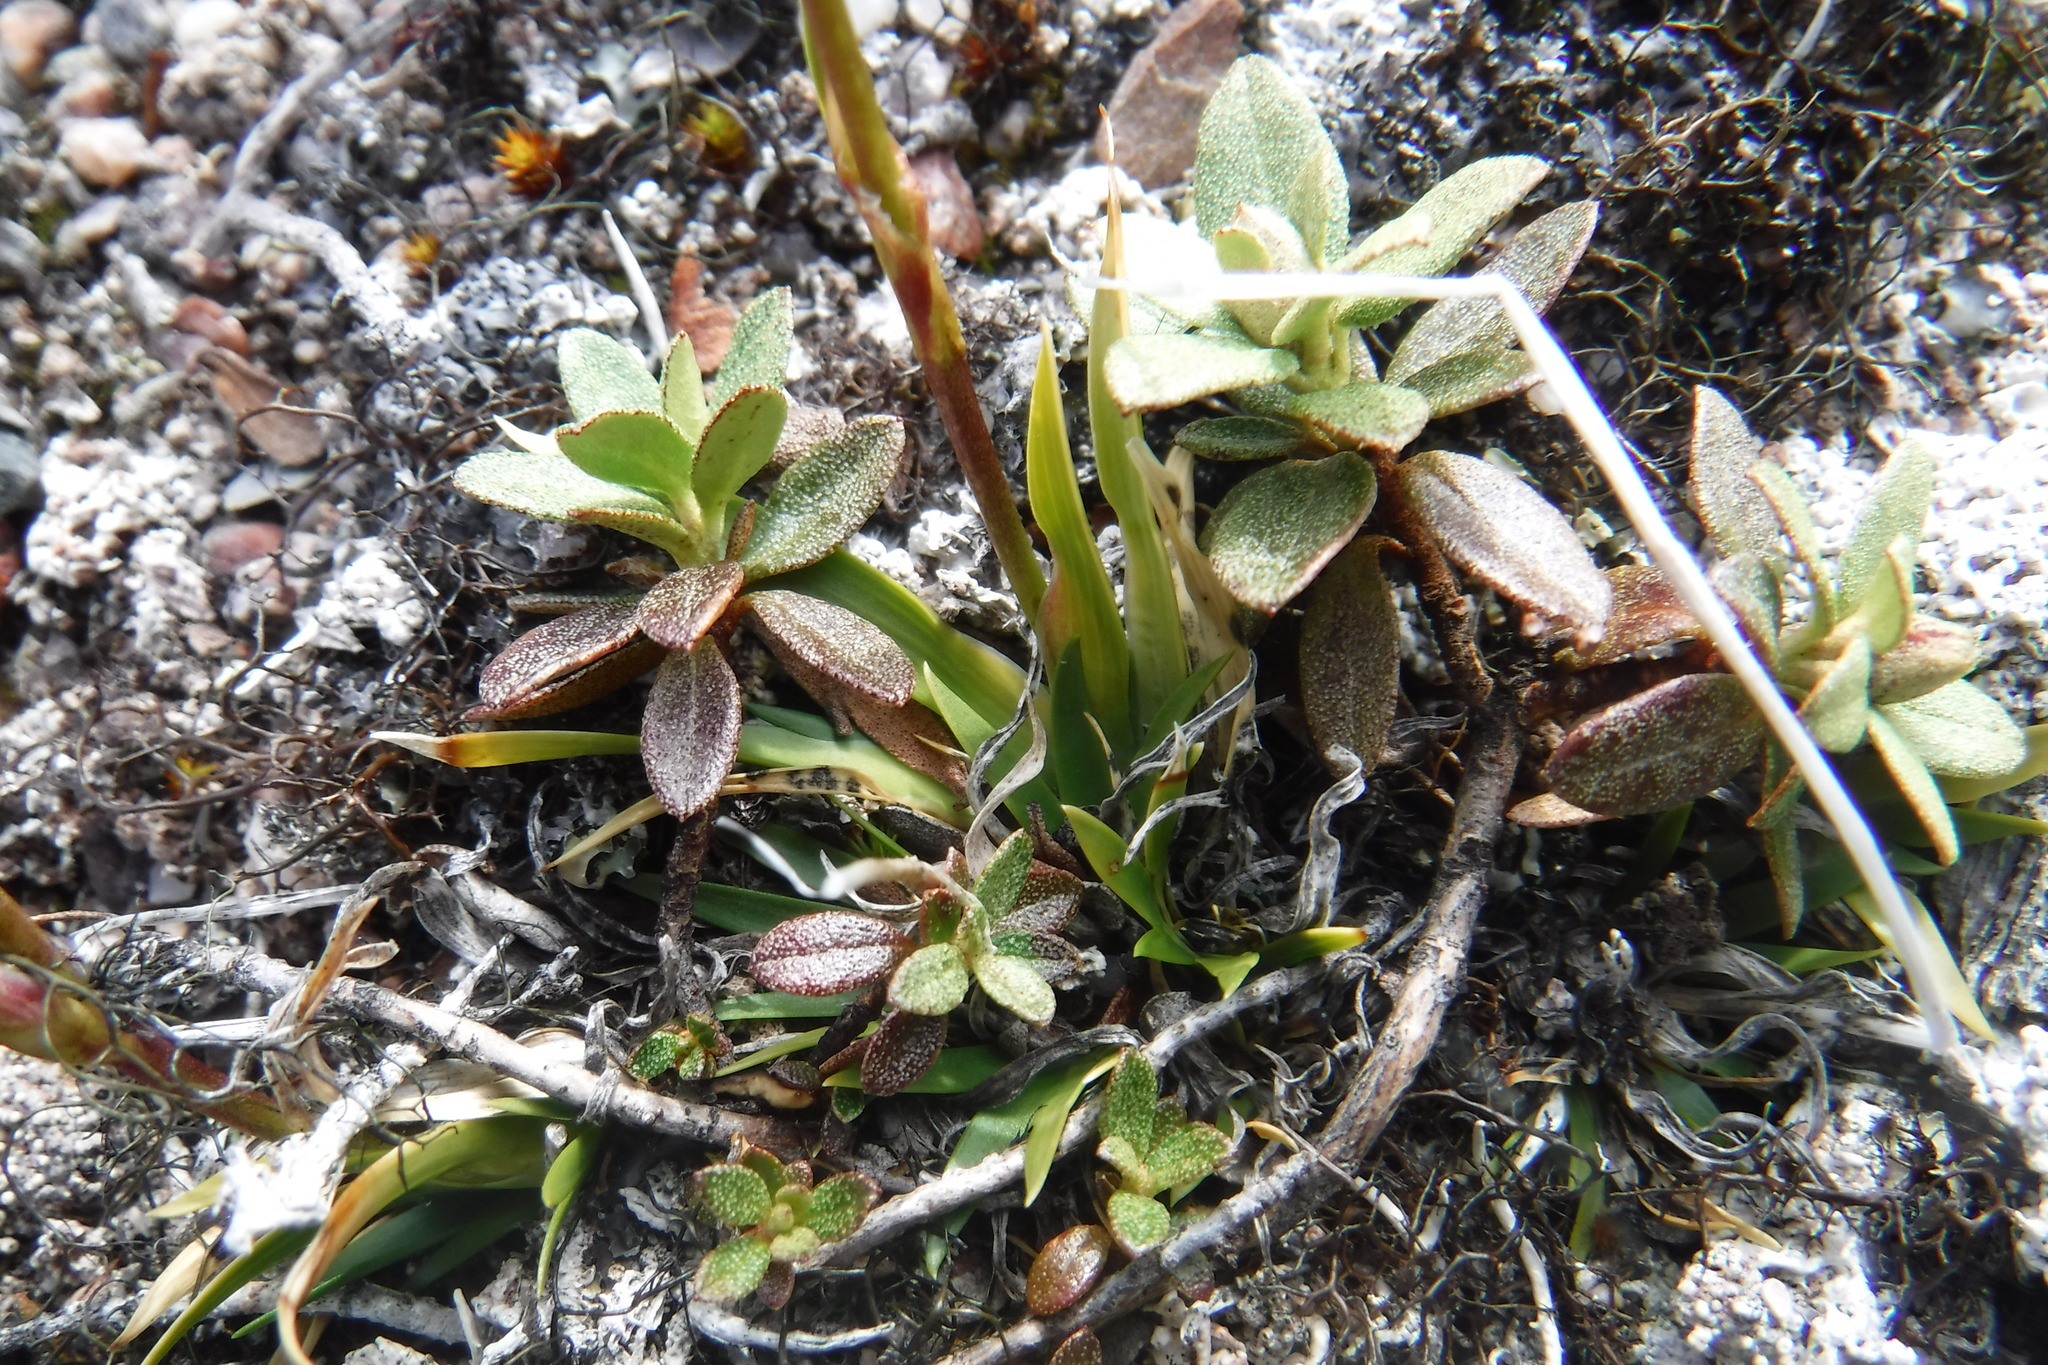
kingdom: Plantae
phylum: Tracheophyta
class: Liliopsida
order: Alismatales
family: Tofieldiaceae
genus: Tofieldia
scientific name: Tofieldia coccinea
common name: Northern false asphodel
